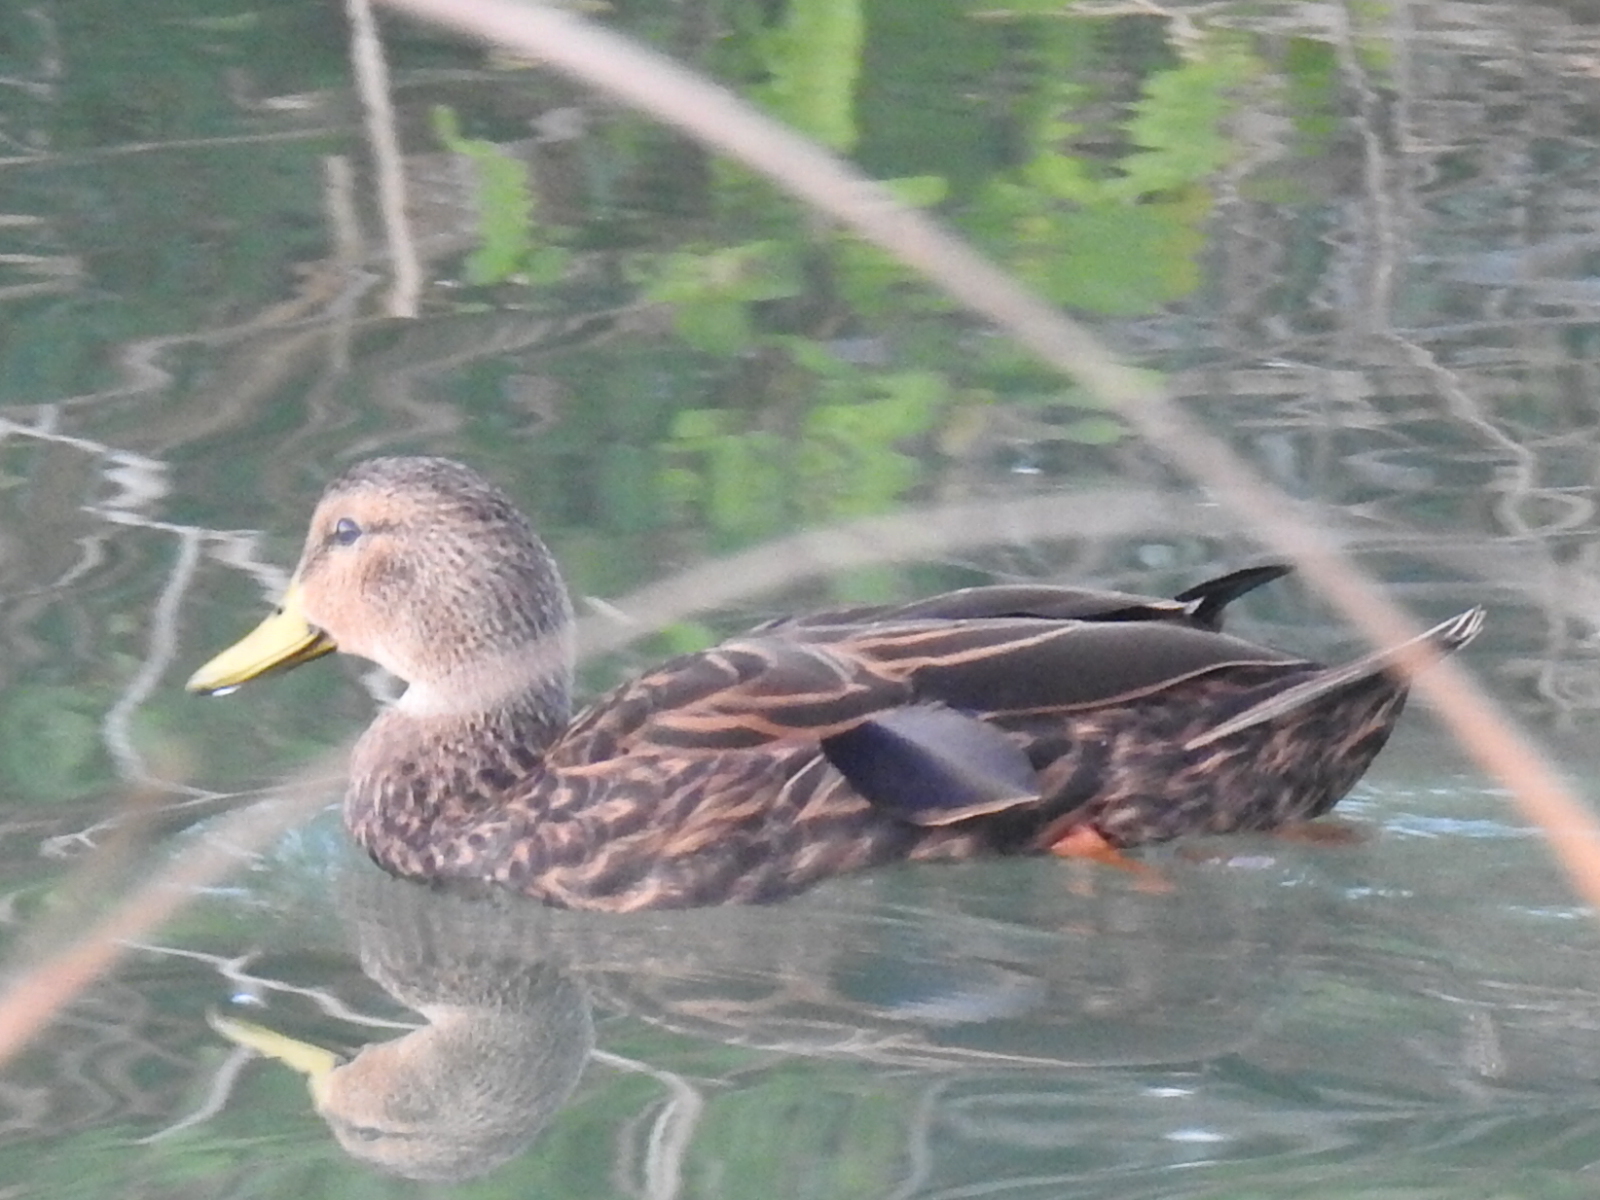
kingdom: Animalia
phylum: Chordata
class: Aves
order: Anseriformes
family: Anatidae
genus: Anas
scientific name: Anas fulvigula
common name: Mottled duck
